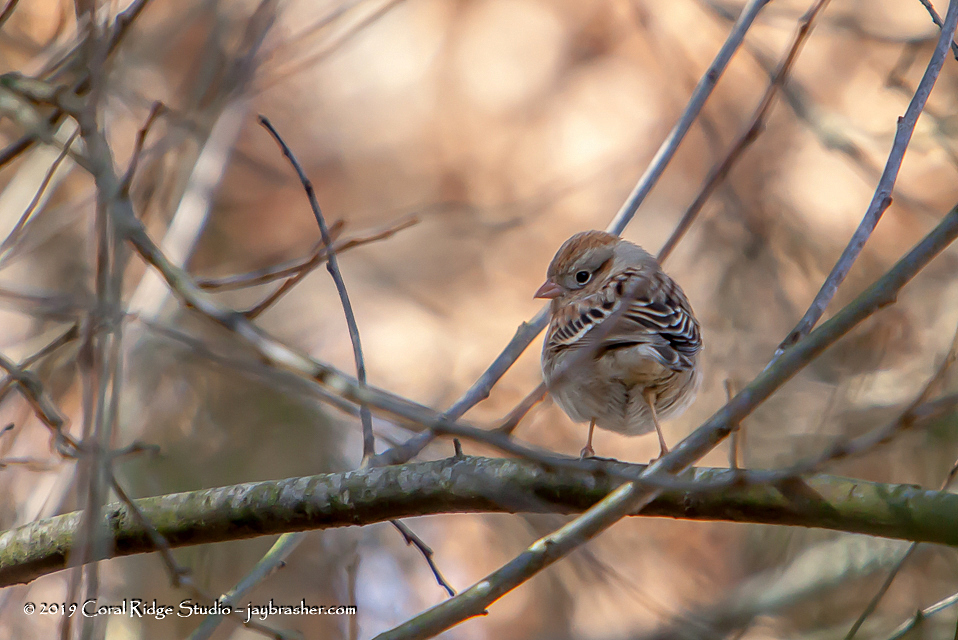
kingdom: Animalia
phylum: Chordata
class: Aves
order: Passeriformes
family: Passerellidae
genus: Spizella
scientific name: Spizella pusilla
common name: Field sparrow
